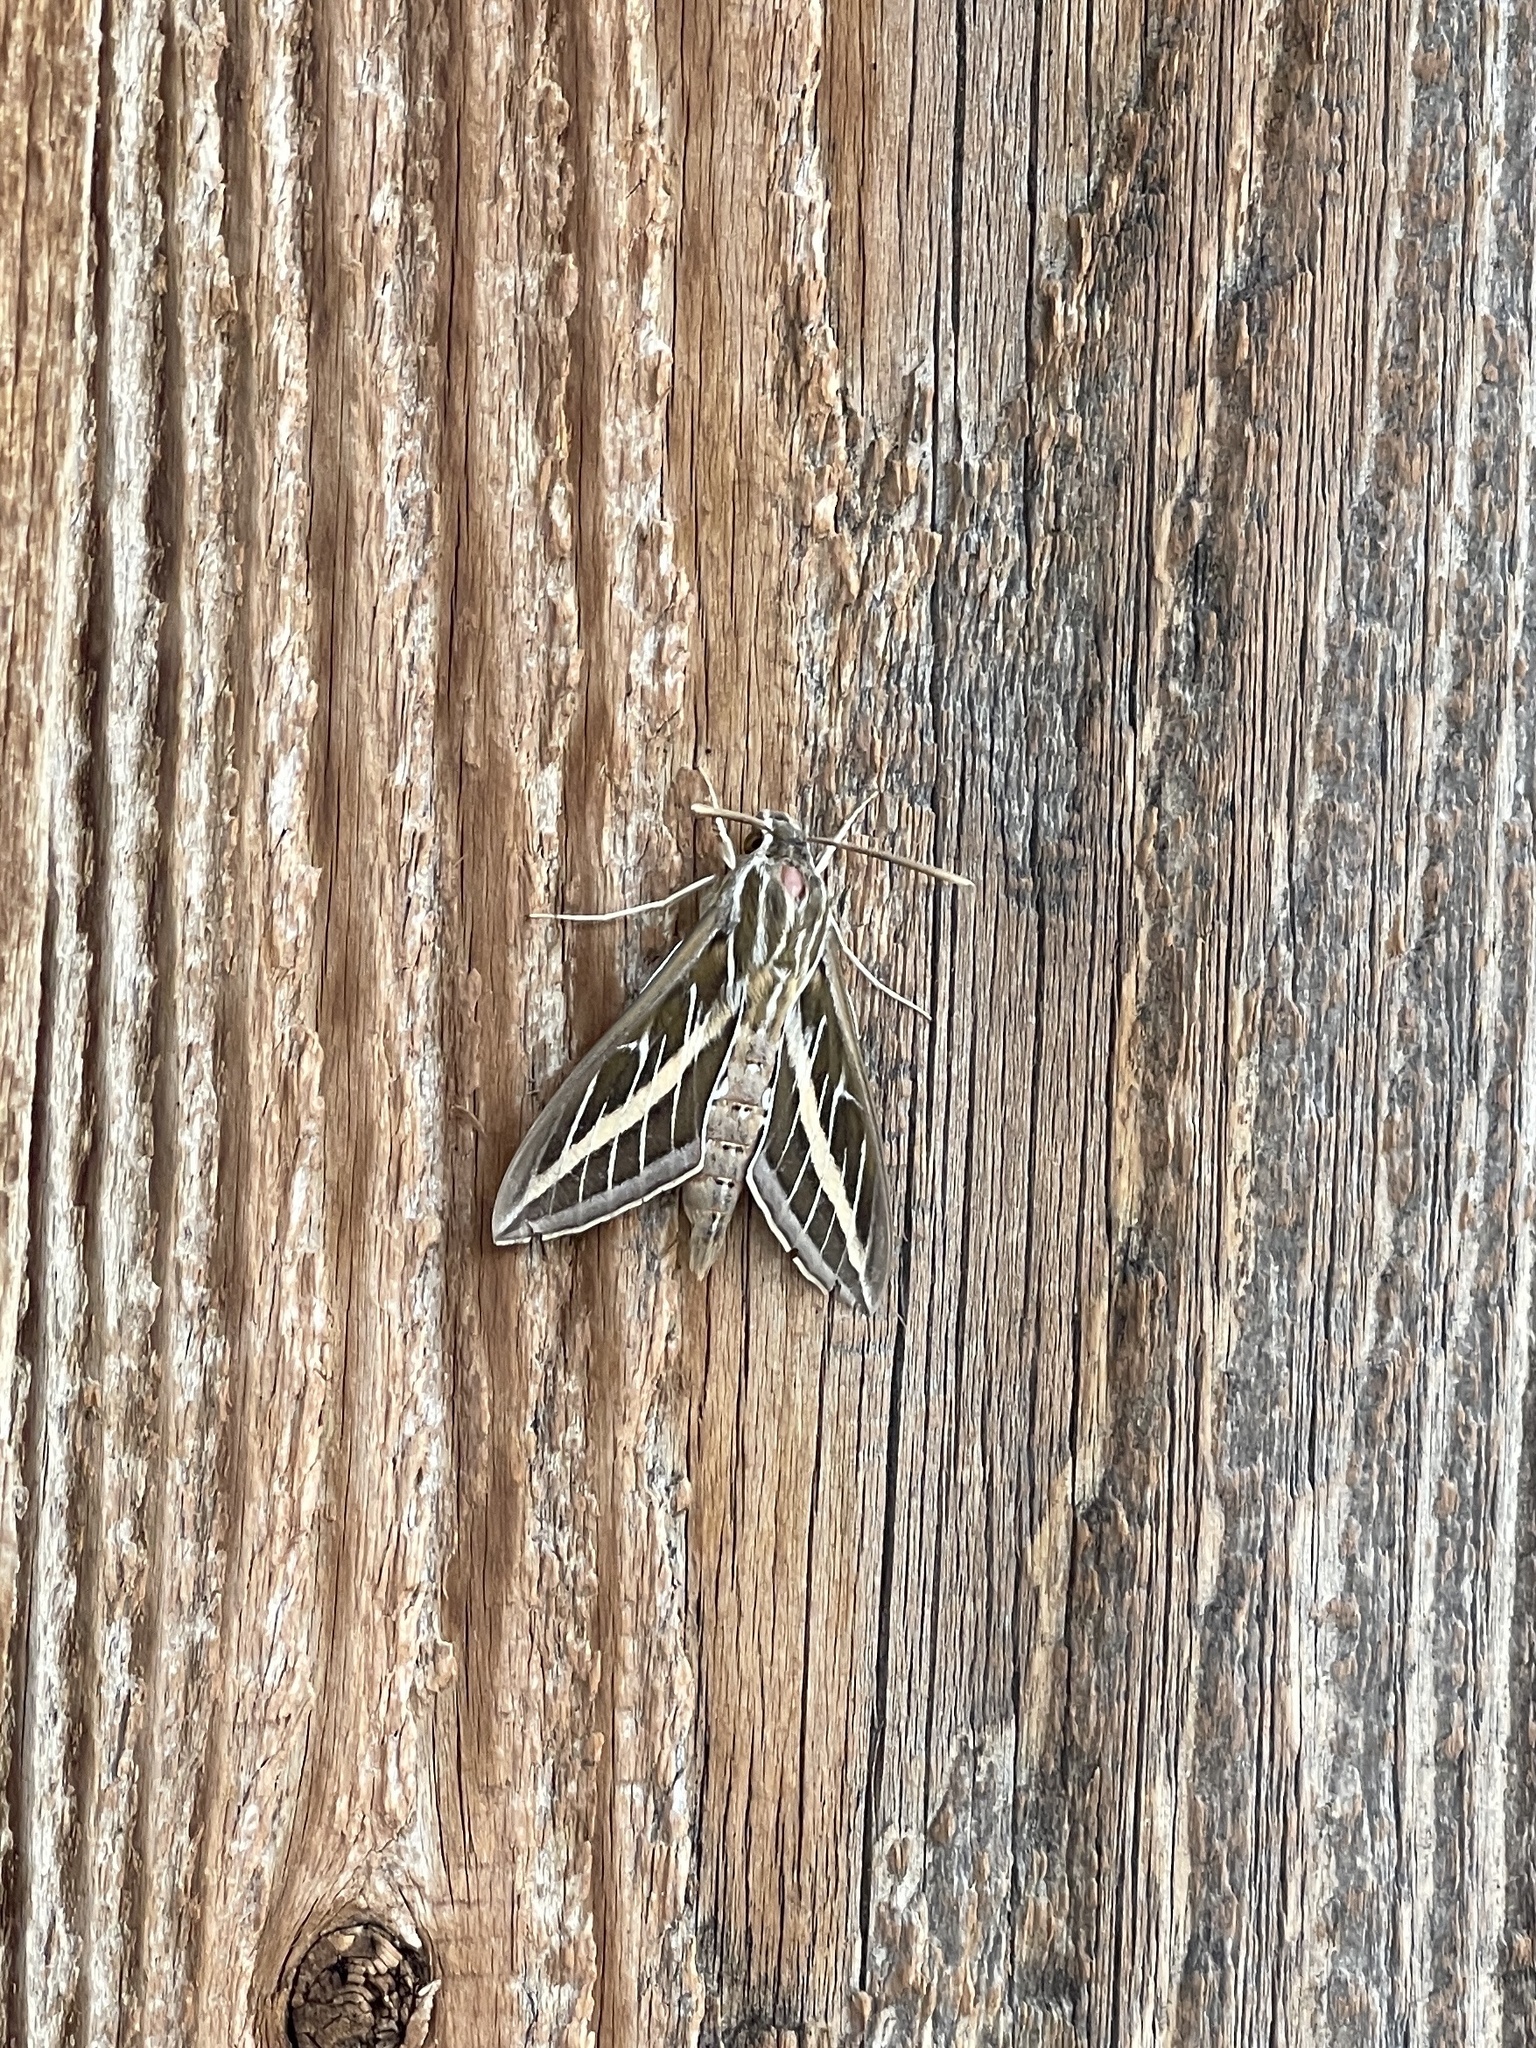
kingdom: Animalia
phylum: Arthropoda
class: Insecta
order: Lepidoptera
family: Sphingidae
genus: Hyles
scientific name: Hyles lineata
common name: White-lined sphinx
